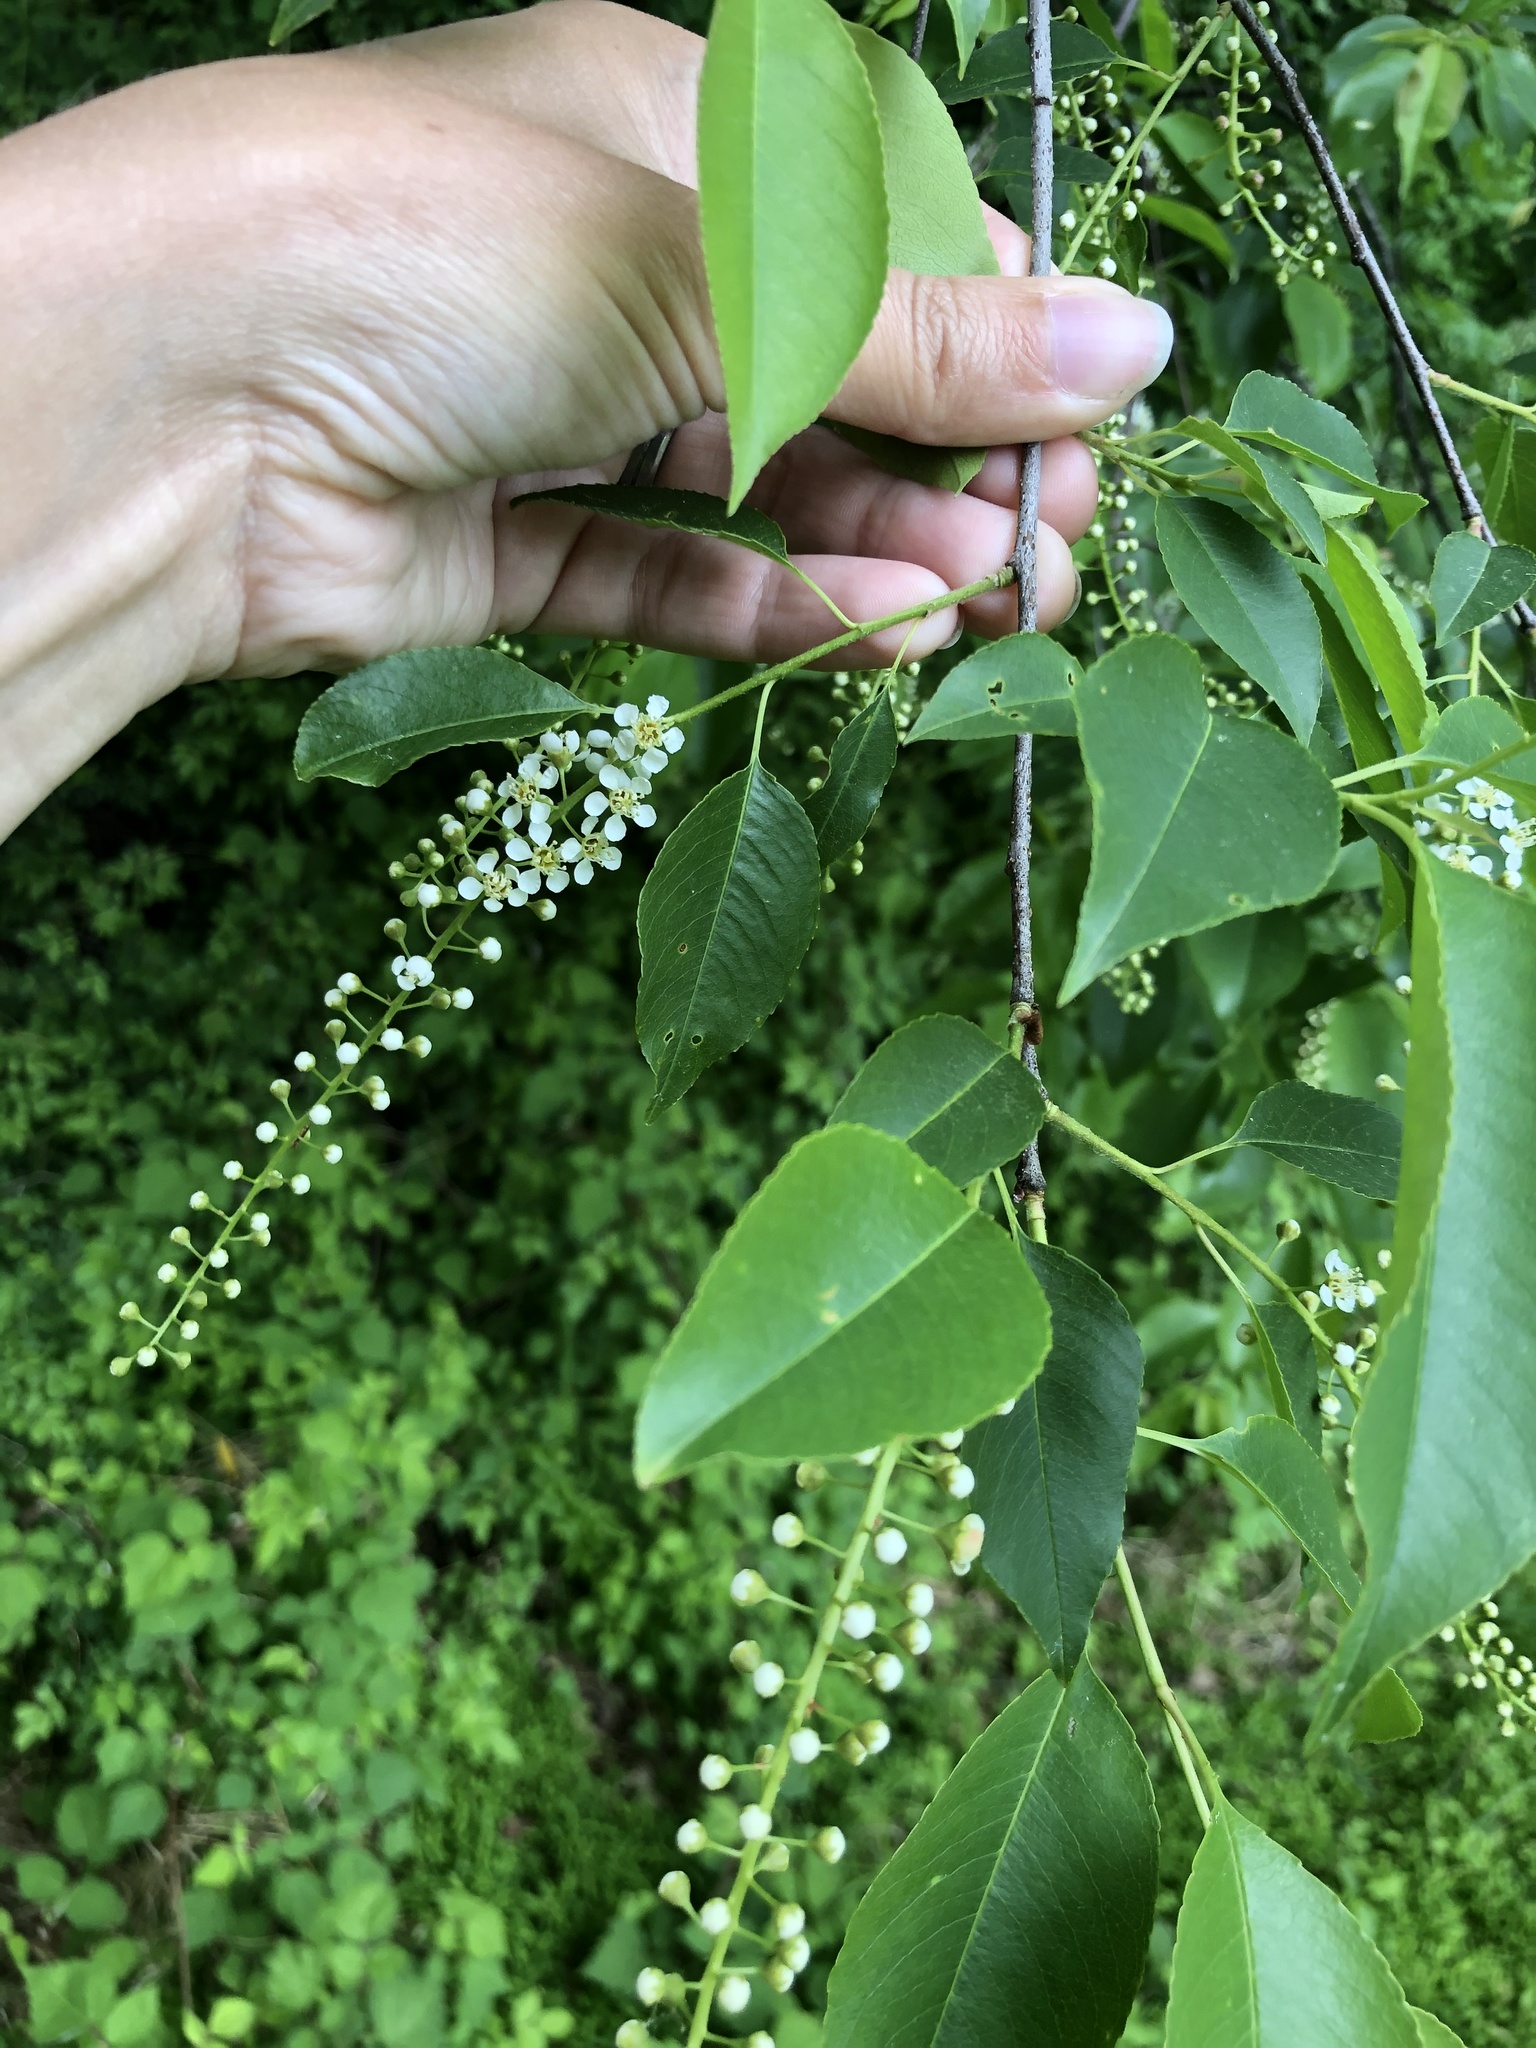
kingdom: Plantae
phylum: Tracheophyta
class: Magnoliopsida
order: Rosales
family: Rosaceae
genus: Prunus
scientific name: Prunus serotina
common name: Black cherry
